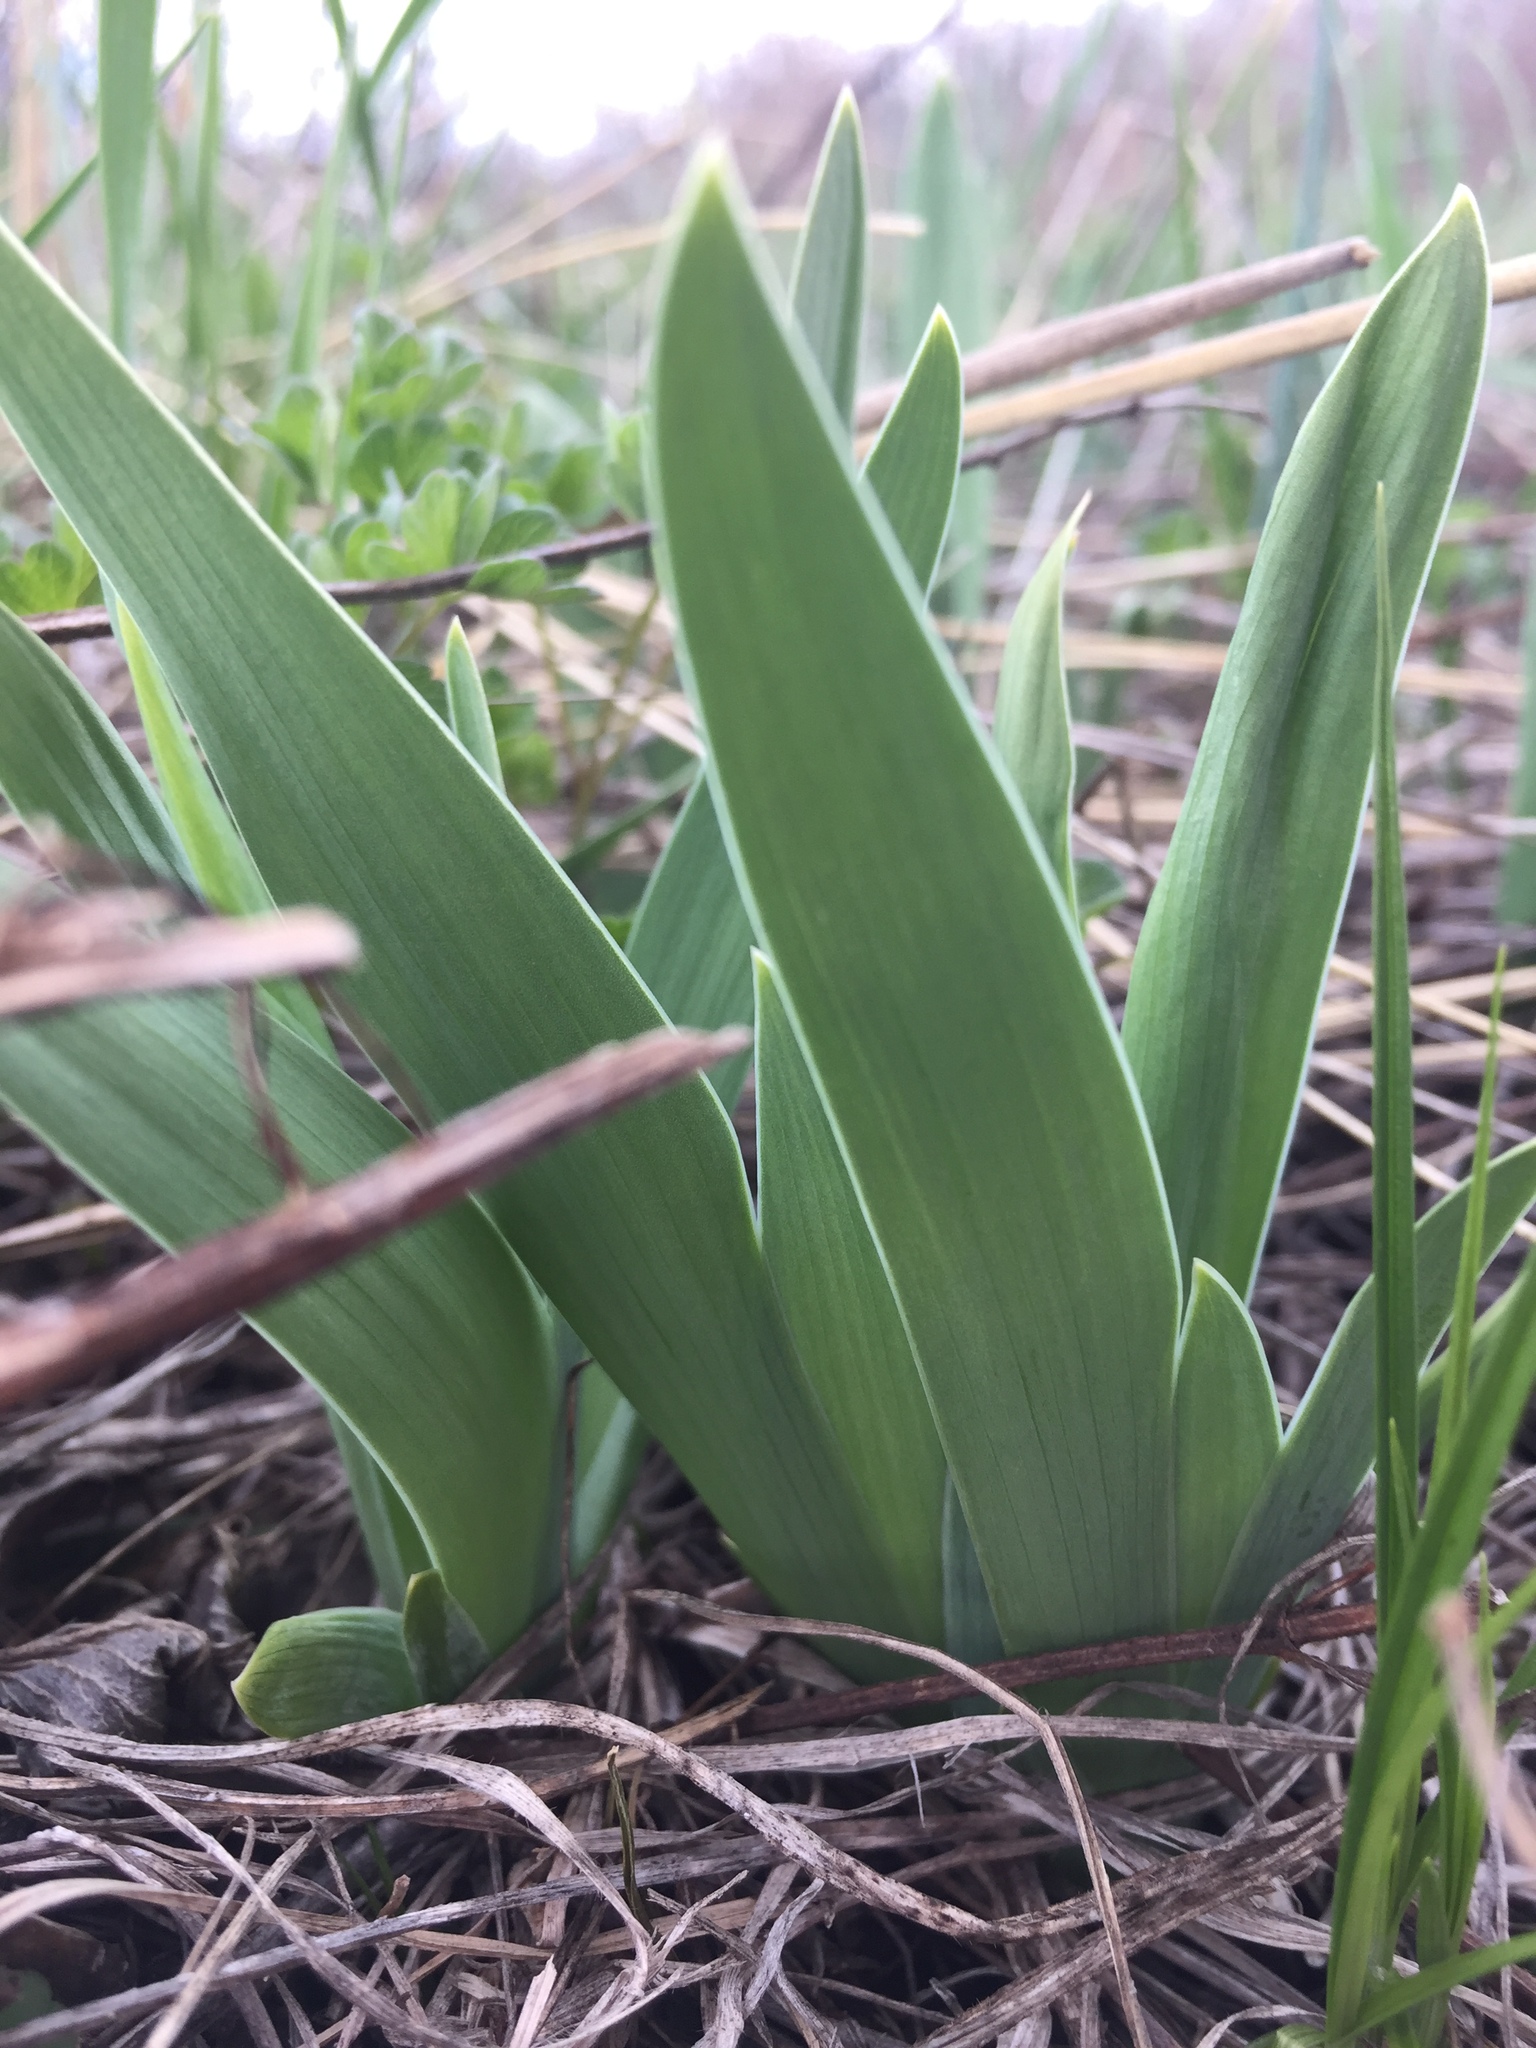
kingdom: Plantae
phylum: Tracheophyta
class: Liliopsida
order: Asparagales
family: Iridaceae
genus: Iris
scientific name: Iris pumila
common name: Dwarf iris
